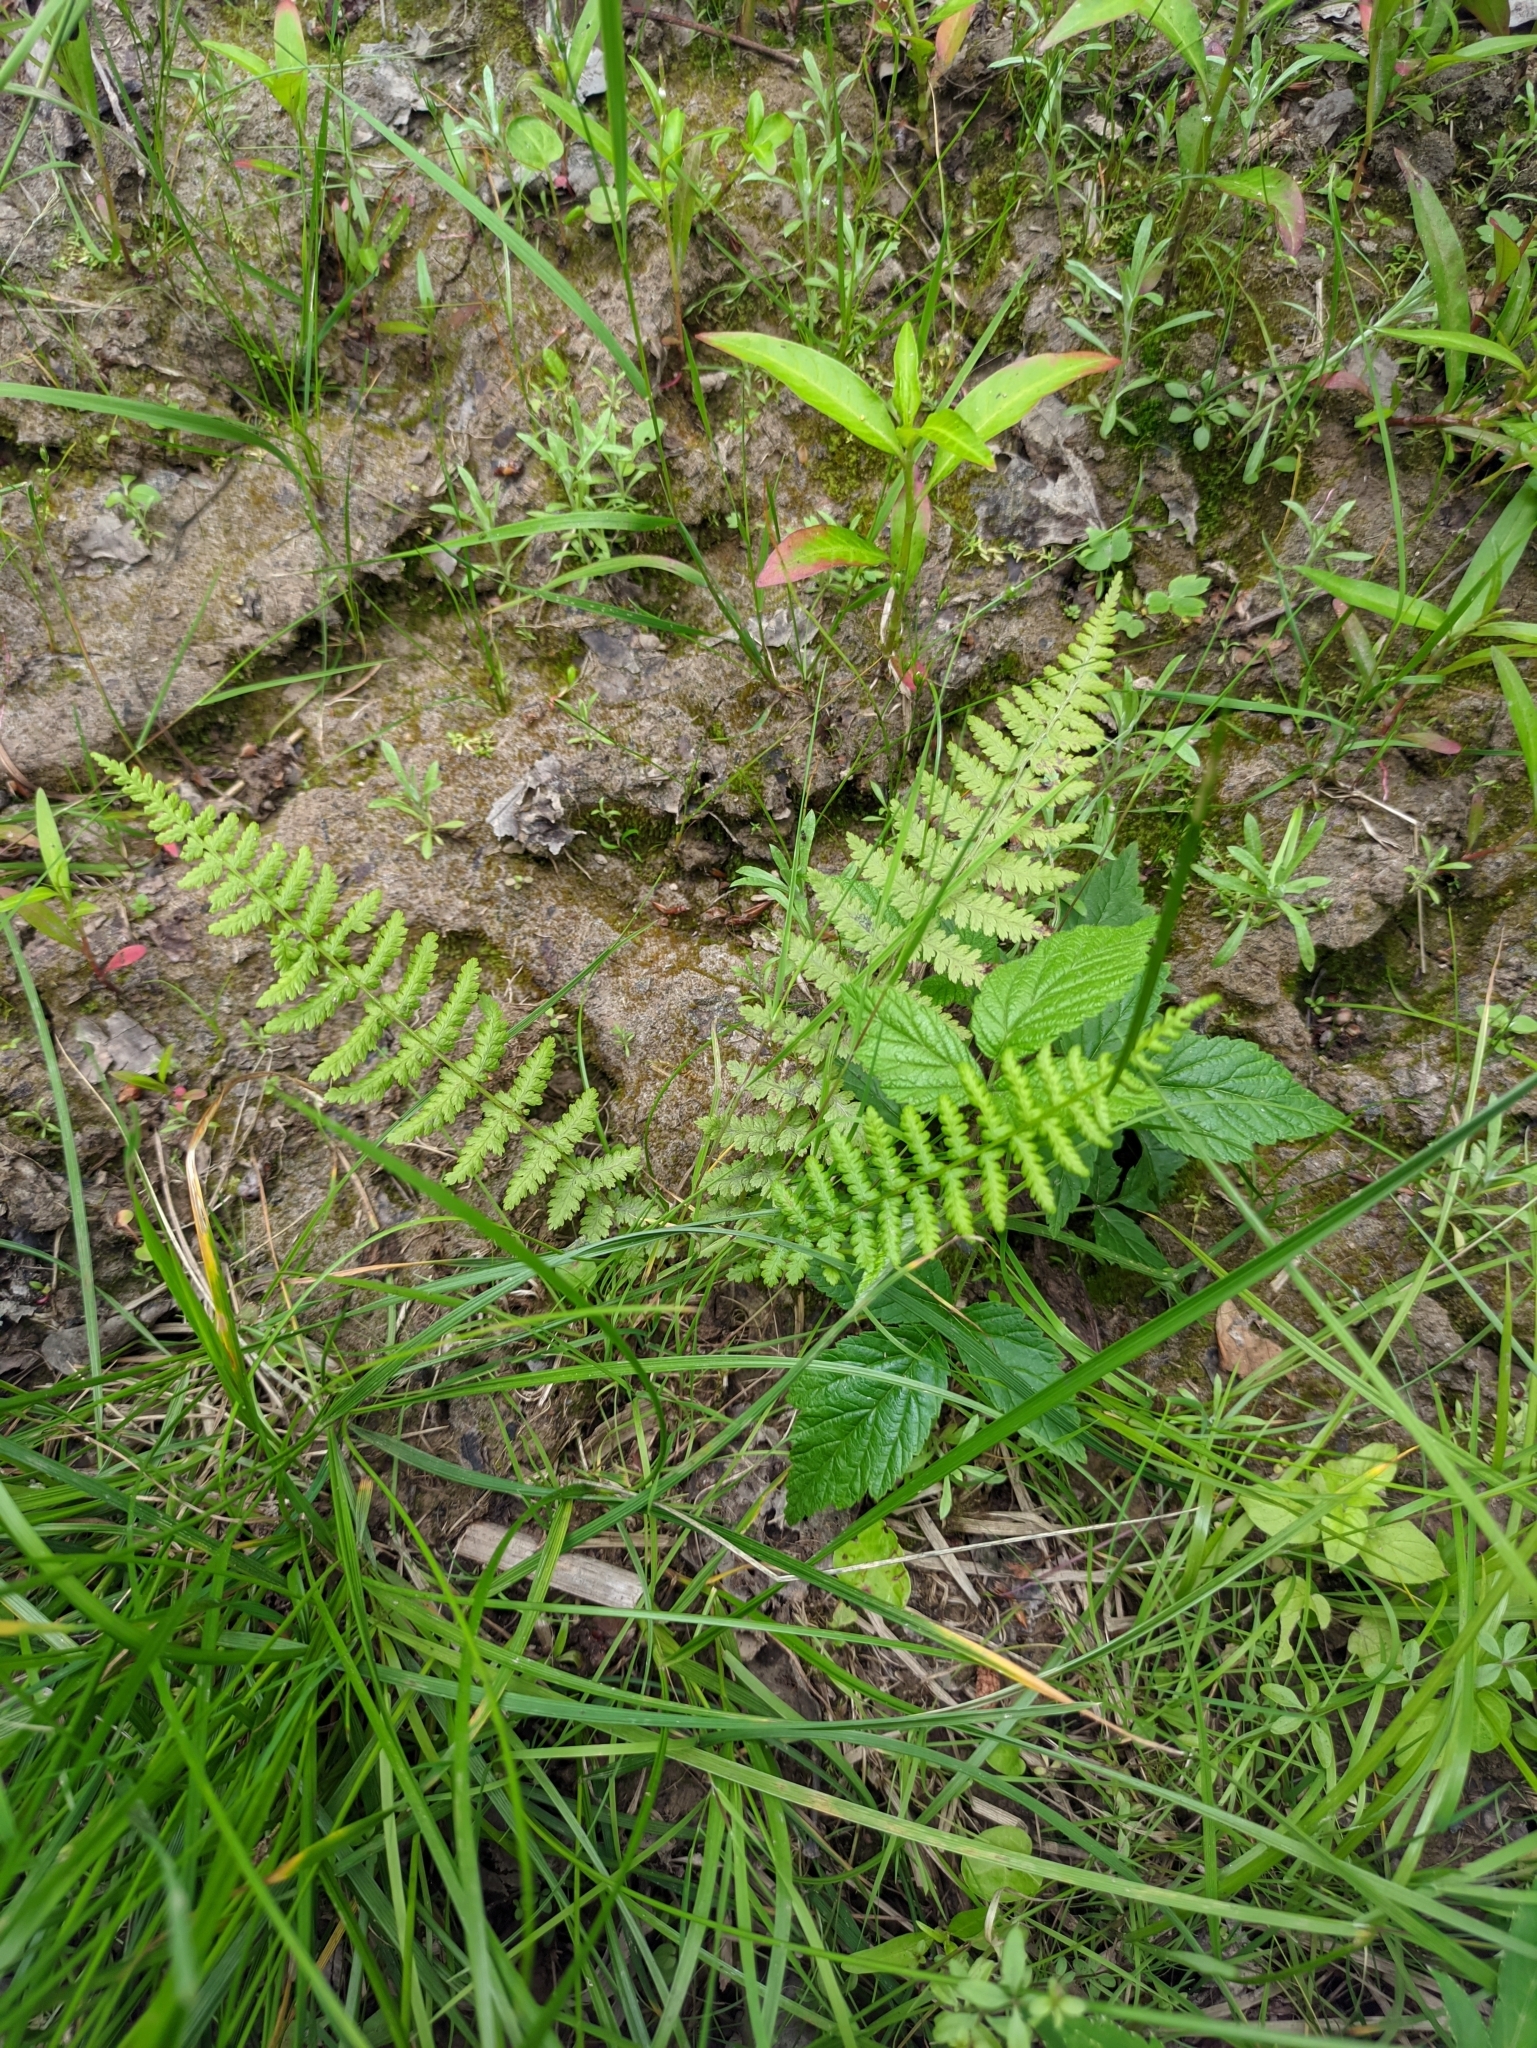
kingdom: Plantae
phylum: Tracheophyta
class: Polypodiopsida
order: Polypodiales
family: Athyriaceae
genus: Athyrium
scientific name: Athyrium filix-femina
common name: Lady fern
